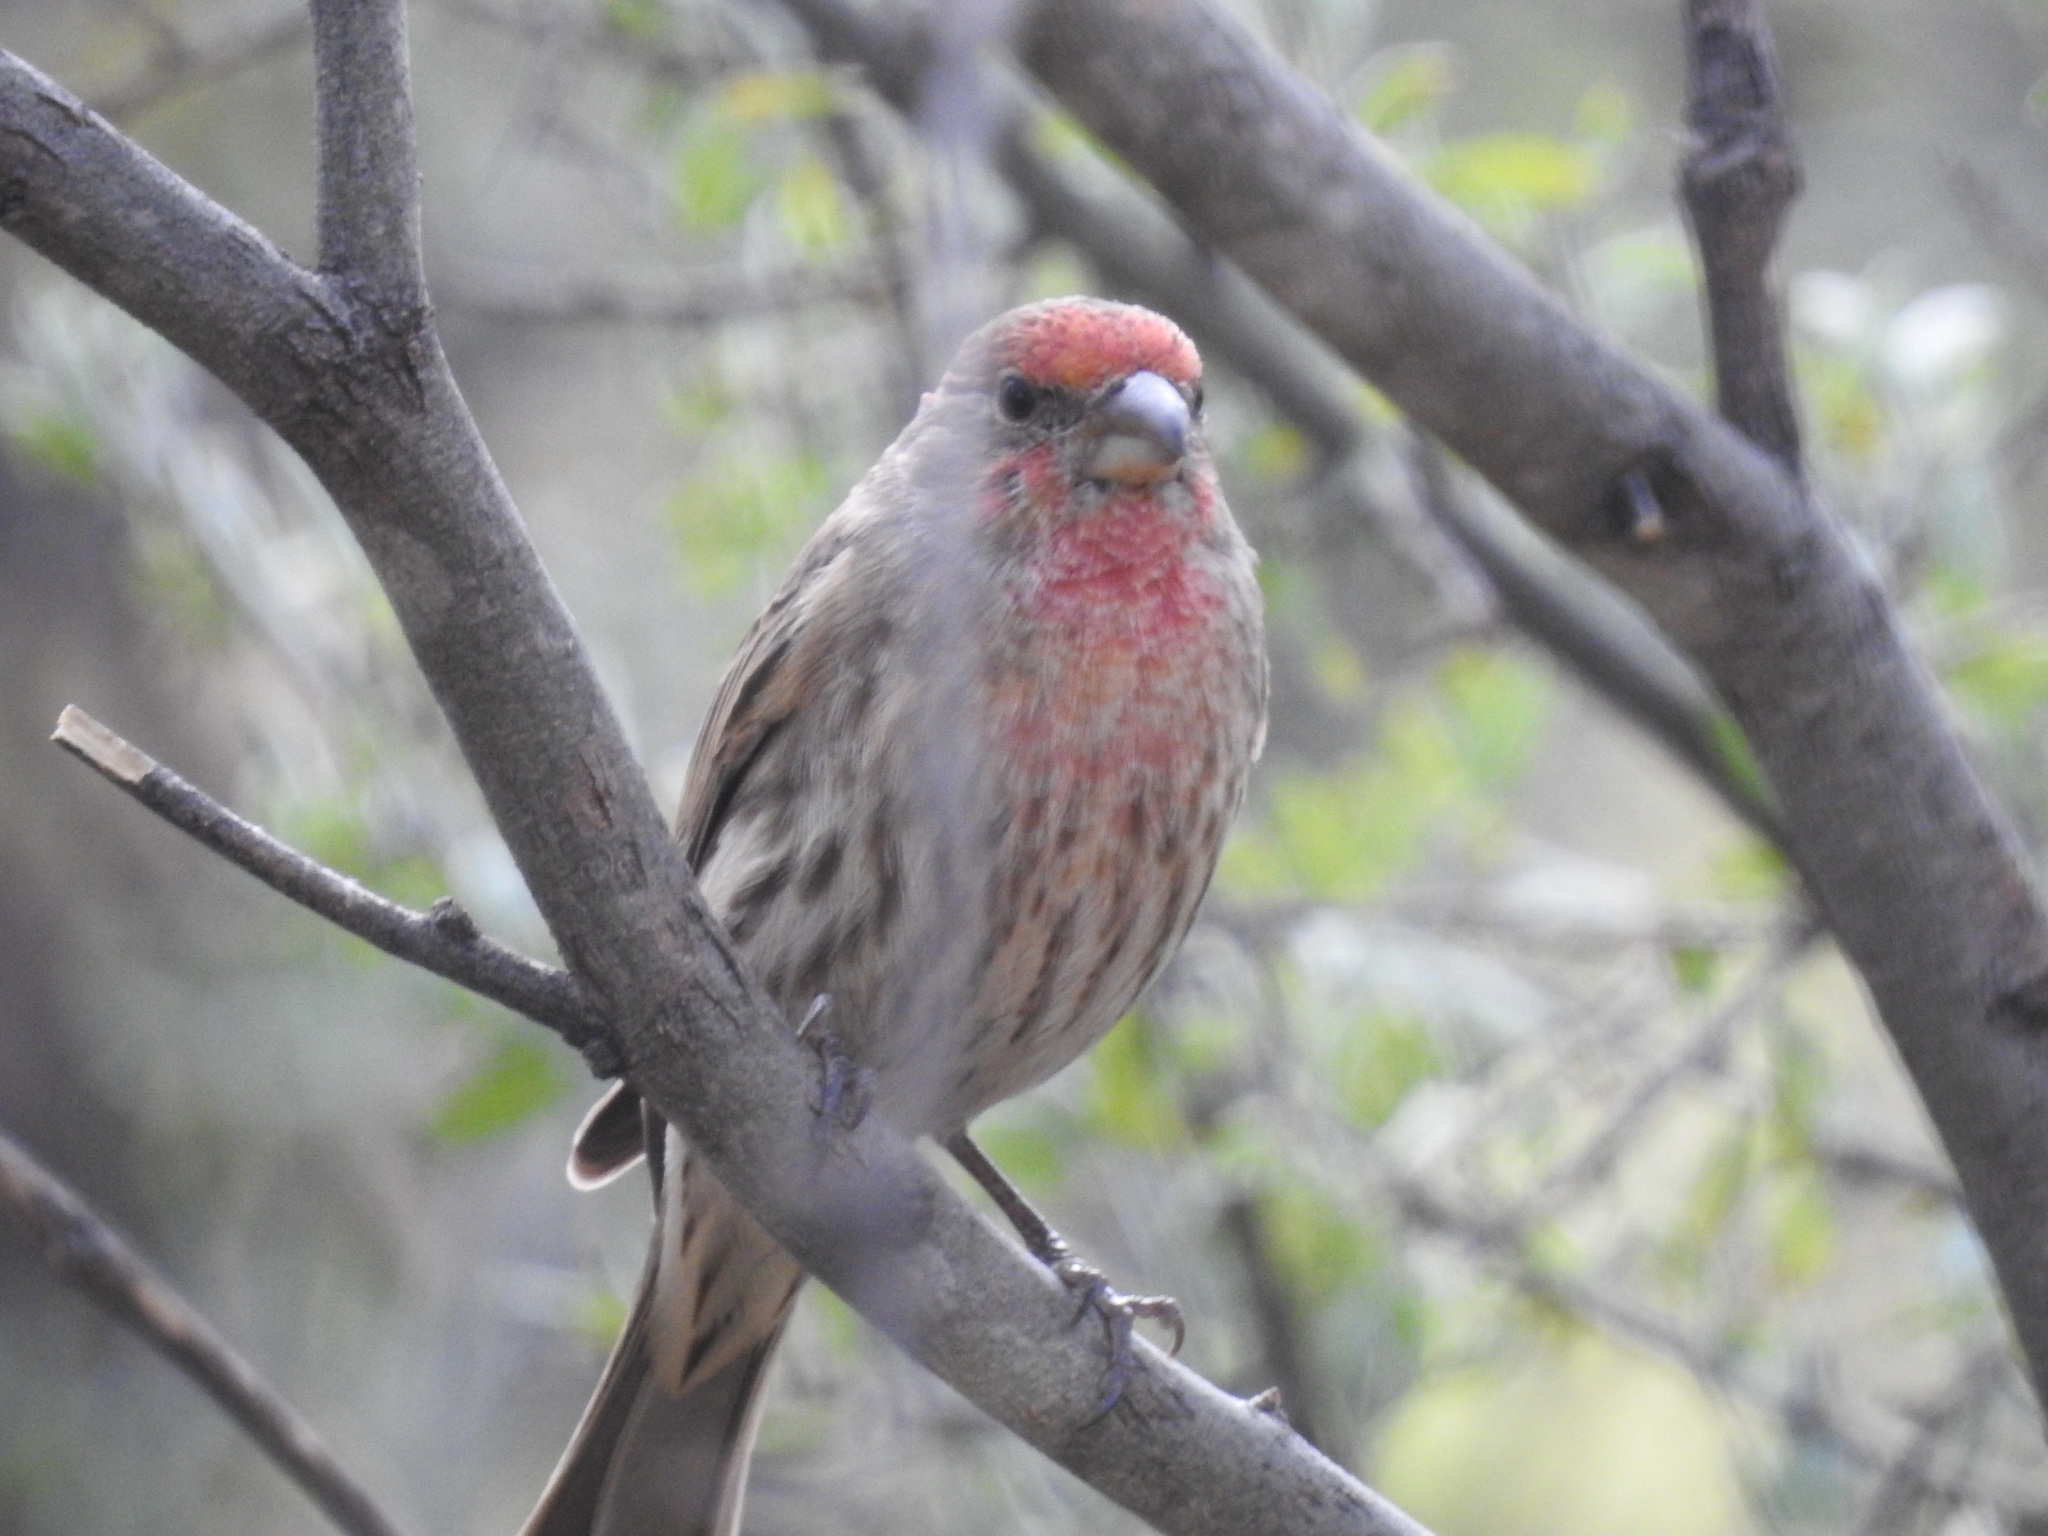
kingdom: Animalia
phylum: Chordata
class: Aves
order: Passeriformes
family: Fringillidae
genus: Haemorhous
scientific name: Haemorhous mexicanus
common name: House finch
